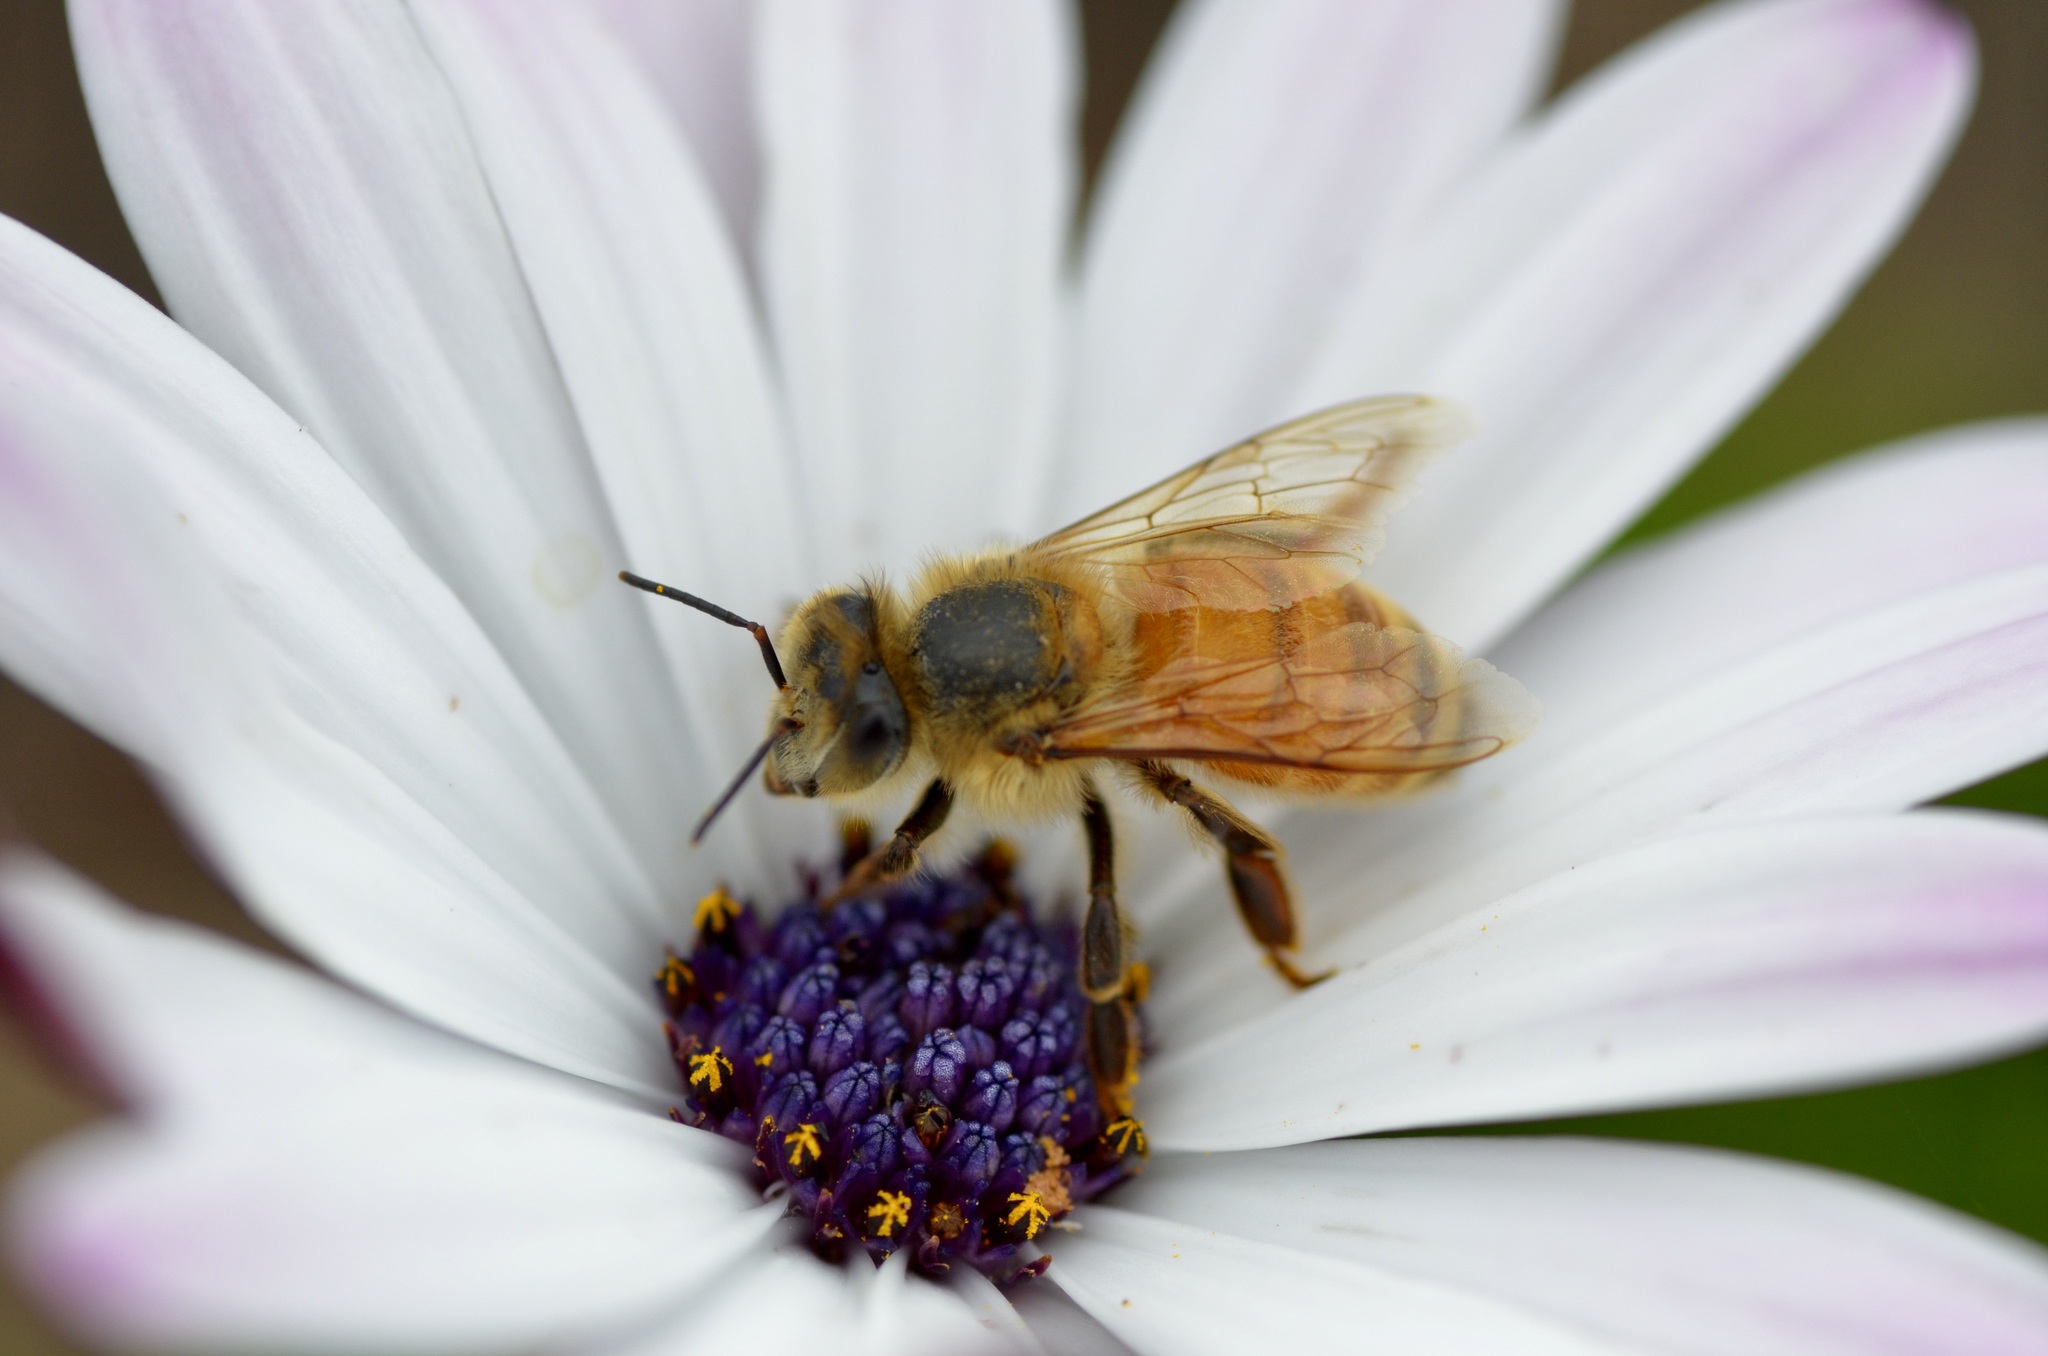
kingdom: Animalia
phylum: Arthropoda
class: Insecta
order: Hymenoptera
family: Apidae
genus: Apis
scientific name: Apis mellifera
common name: Honey bee
